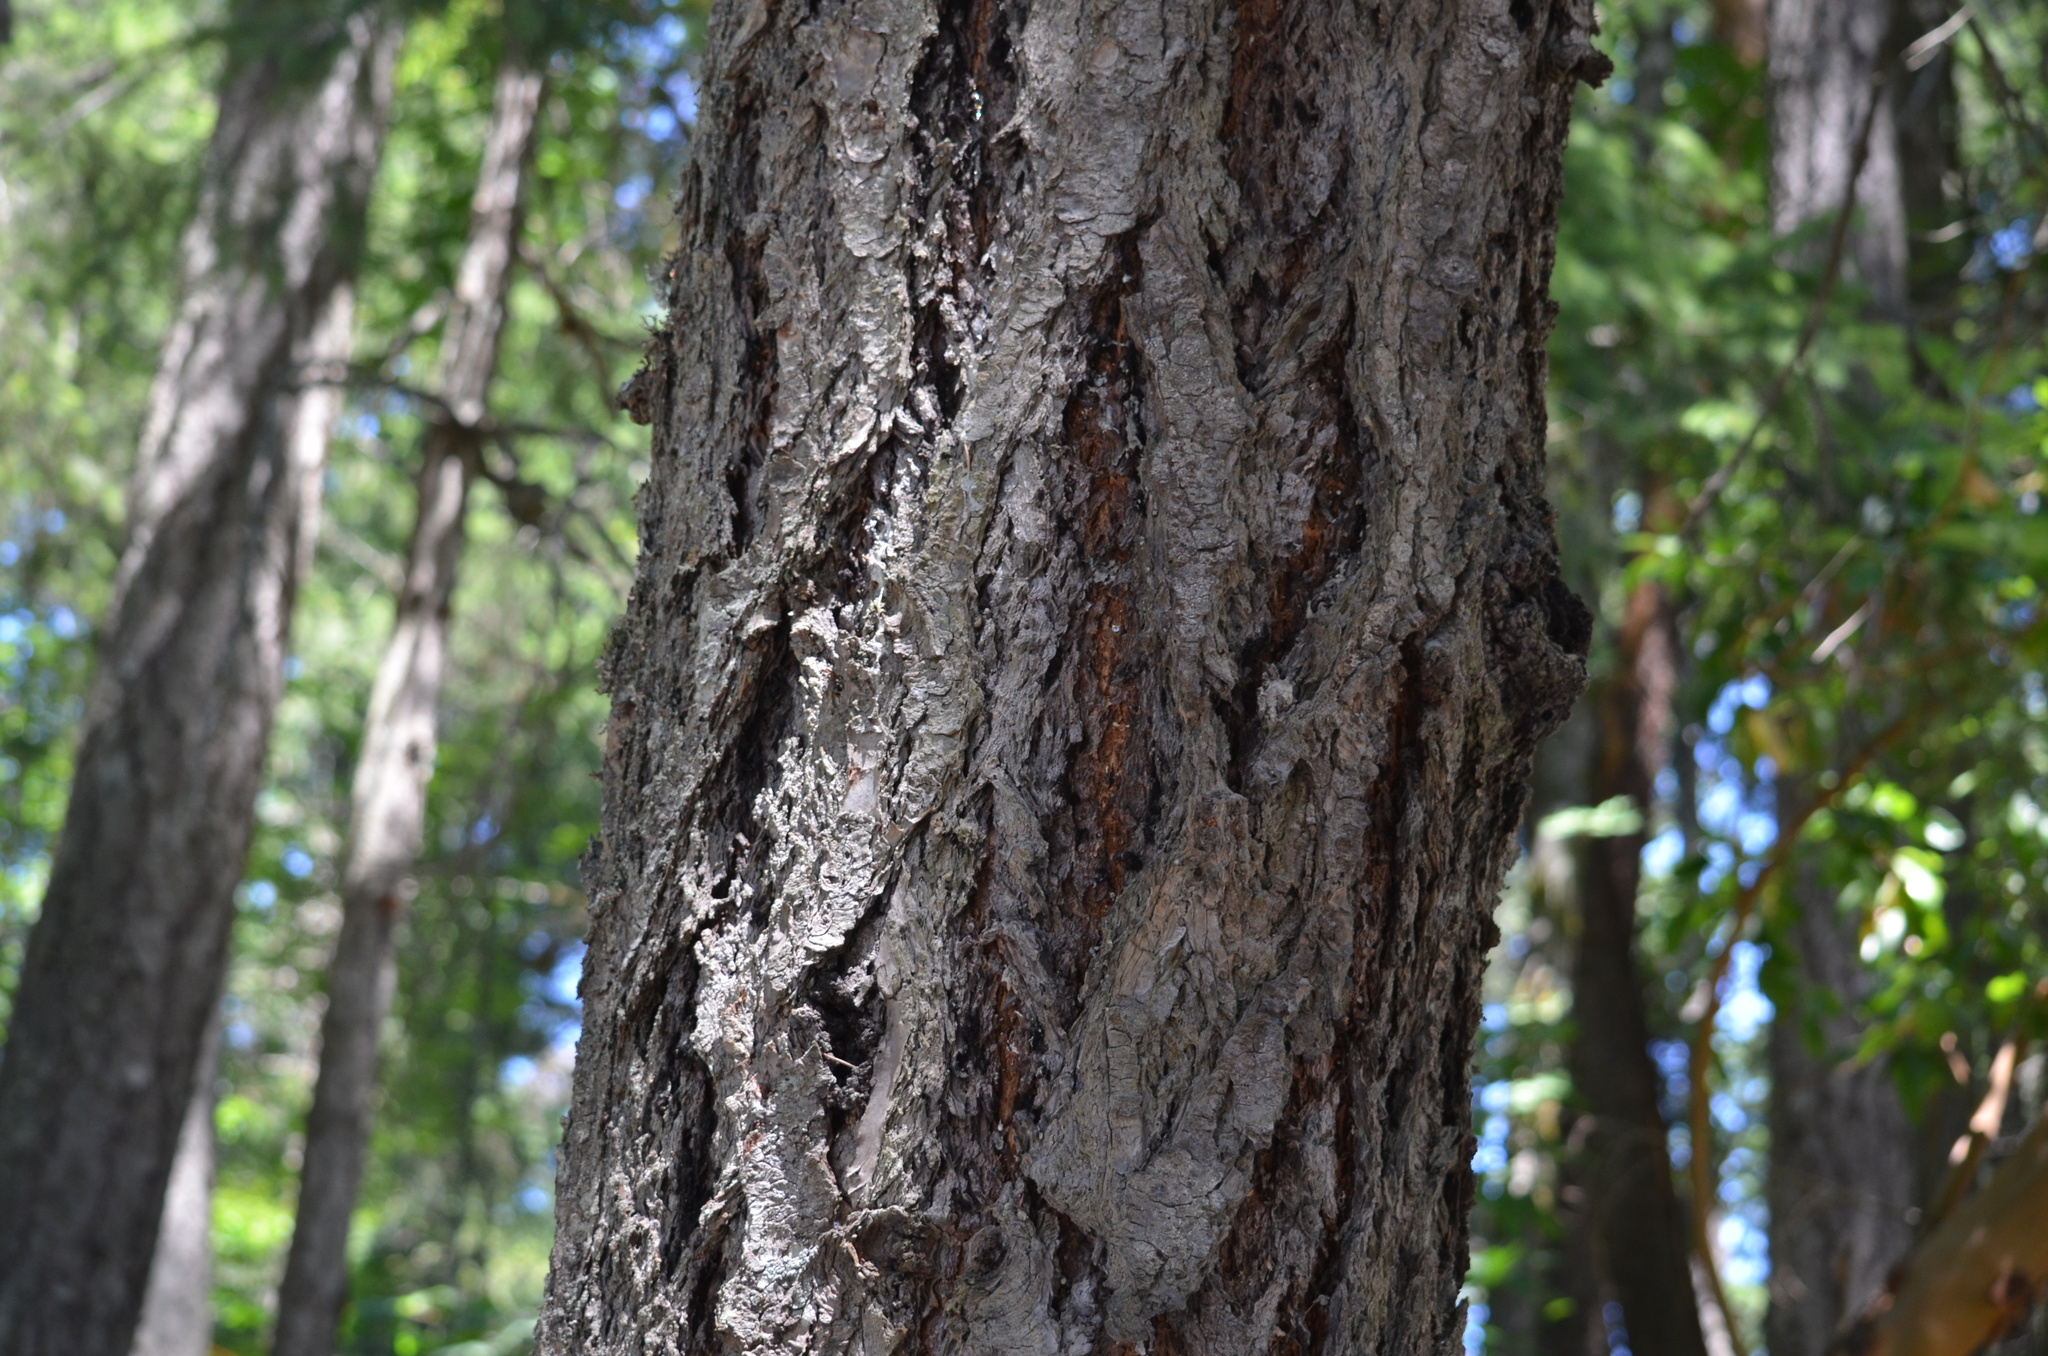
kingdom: Plantae
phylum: Tracheophyta
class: Pinopsida
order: Pinales
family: Pinaceae
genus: Pseudotsuga
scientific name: Pseudotsuga menziesii
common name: Douglas fir
